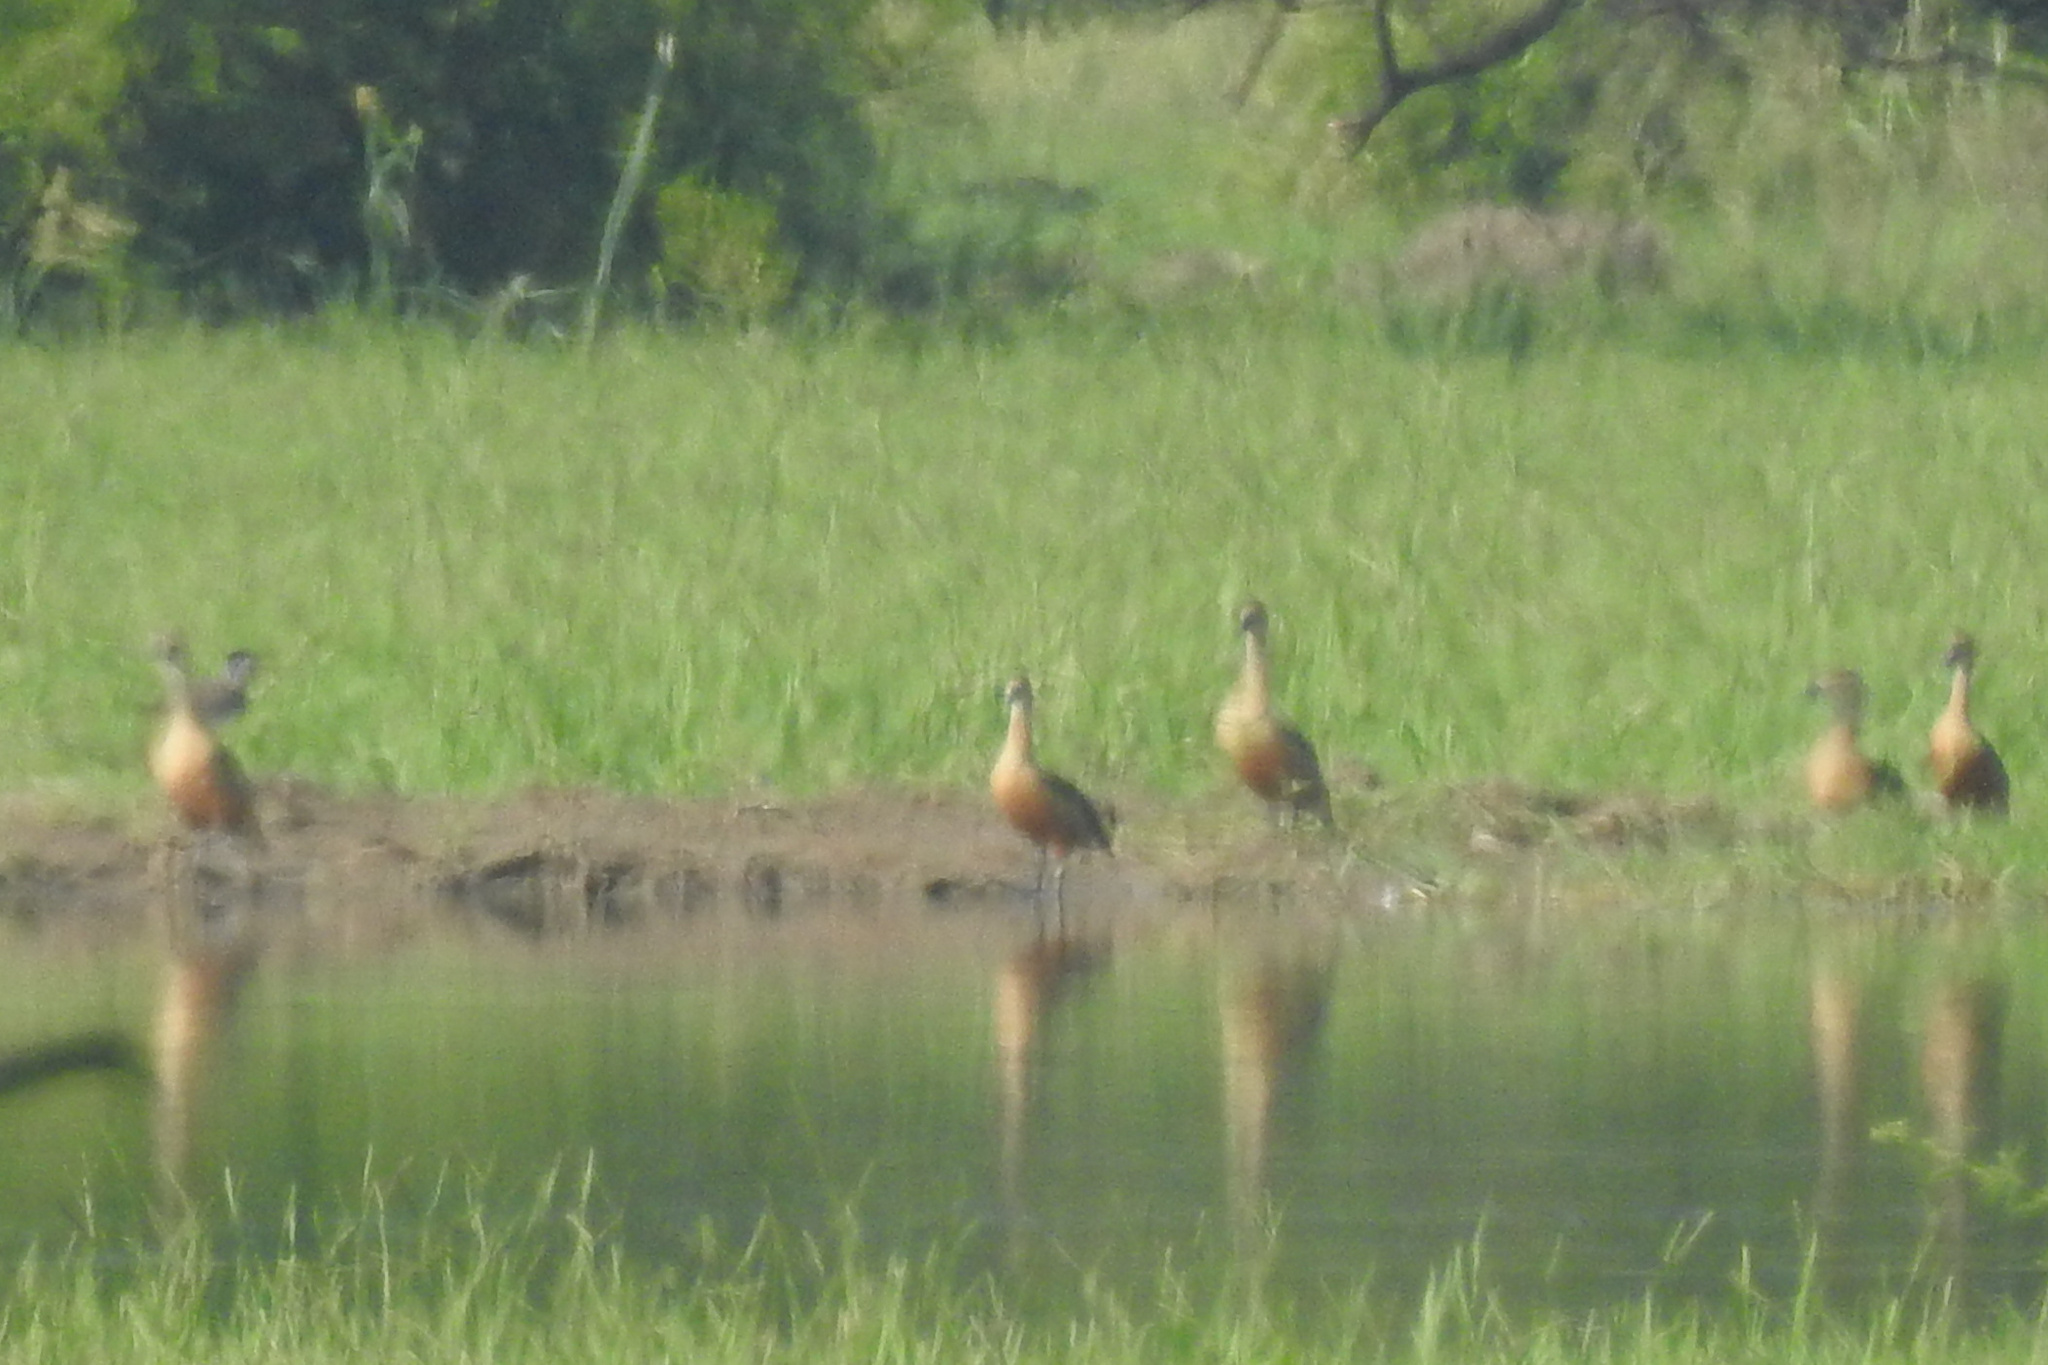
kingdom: Animalia
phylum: Chordata
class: Aves
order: Anseriformes
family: Anatidae
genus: Dendrocygna
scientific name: Dendrocygna javanica
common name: Lesser whistling-duck
